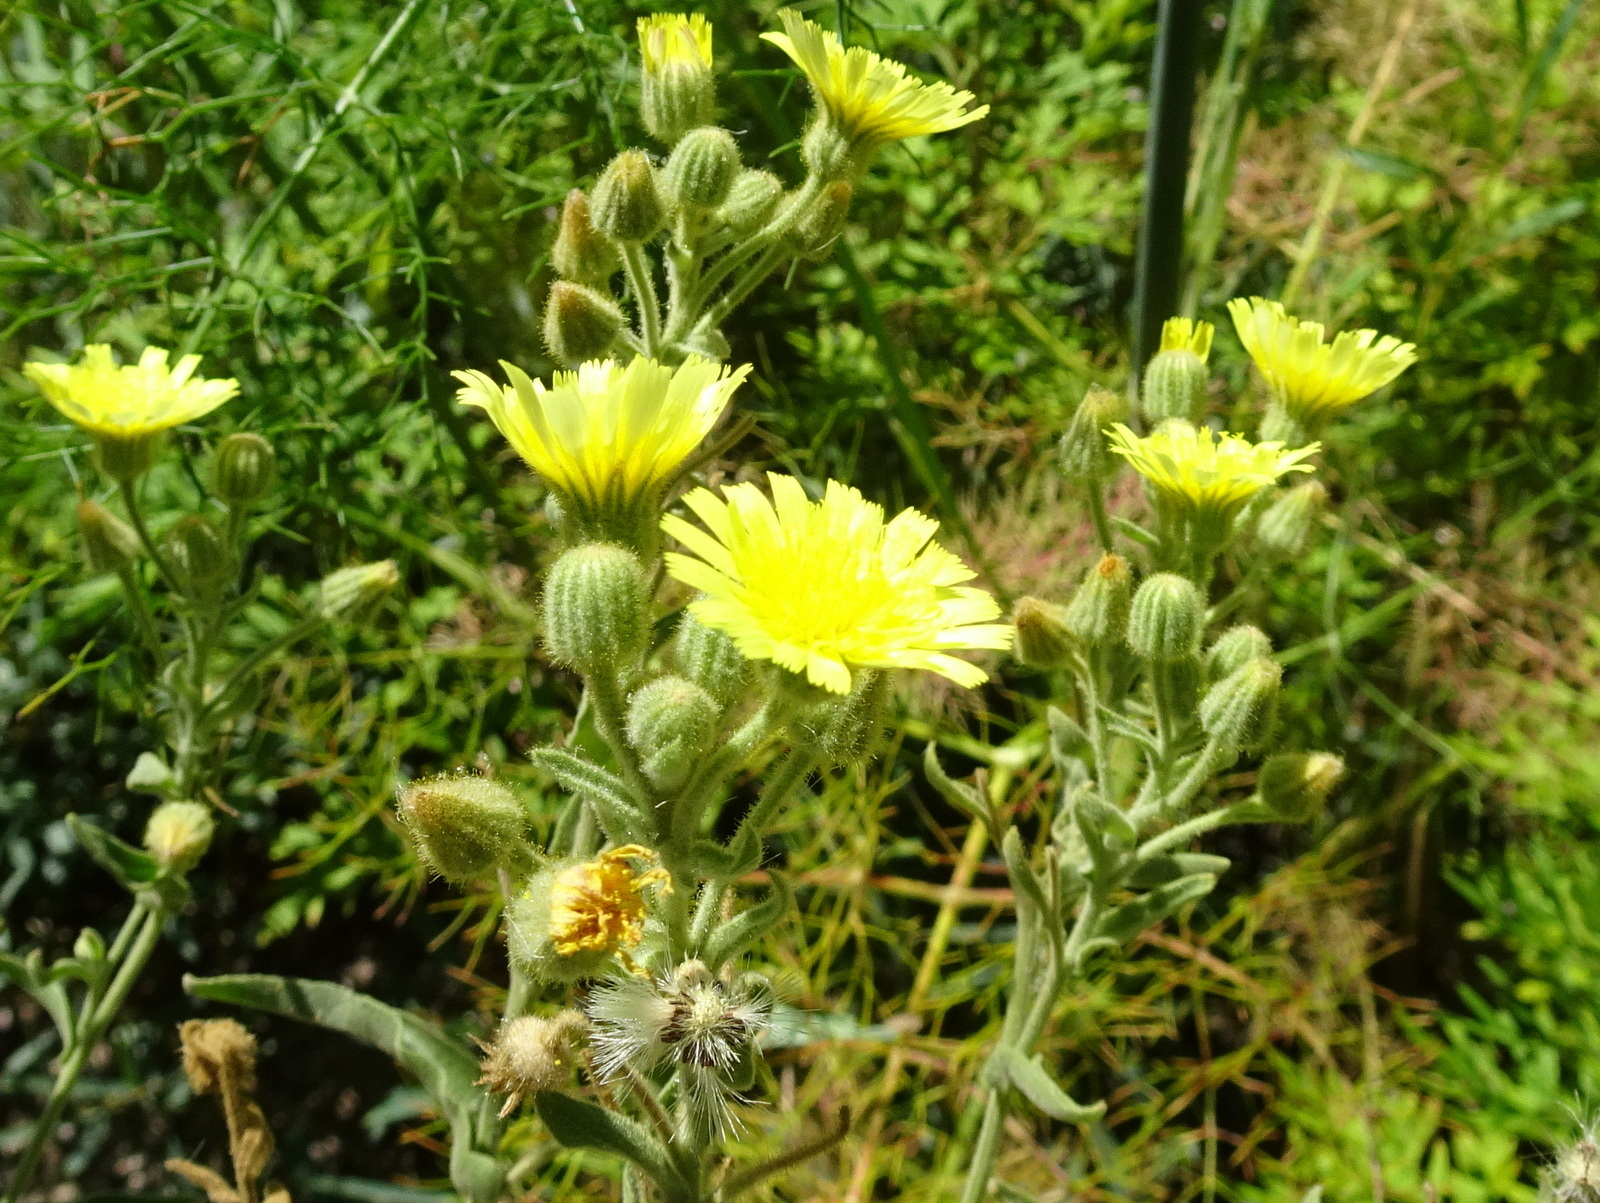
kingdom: Plantae
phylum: Tracheophyta
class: Magnoliopsida
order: Asterales
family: Asteraceae
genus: Andryala
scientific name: Andryala integrifolia
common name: Common andryala
